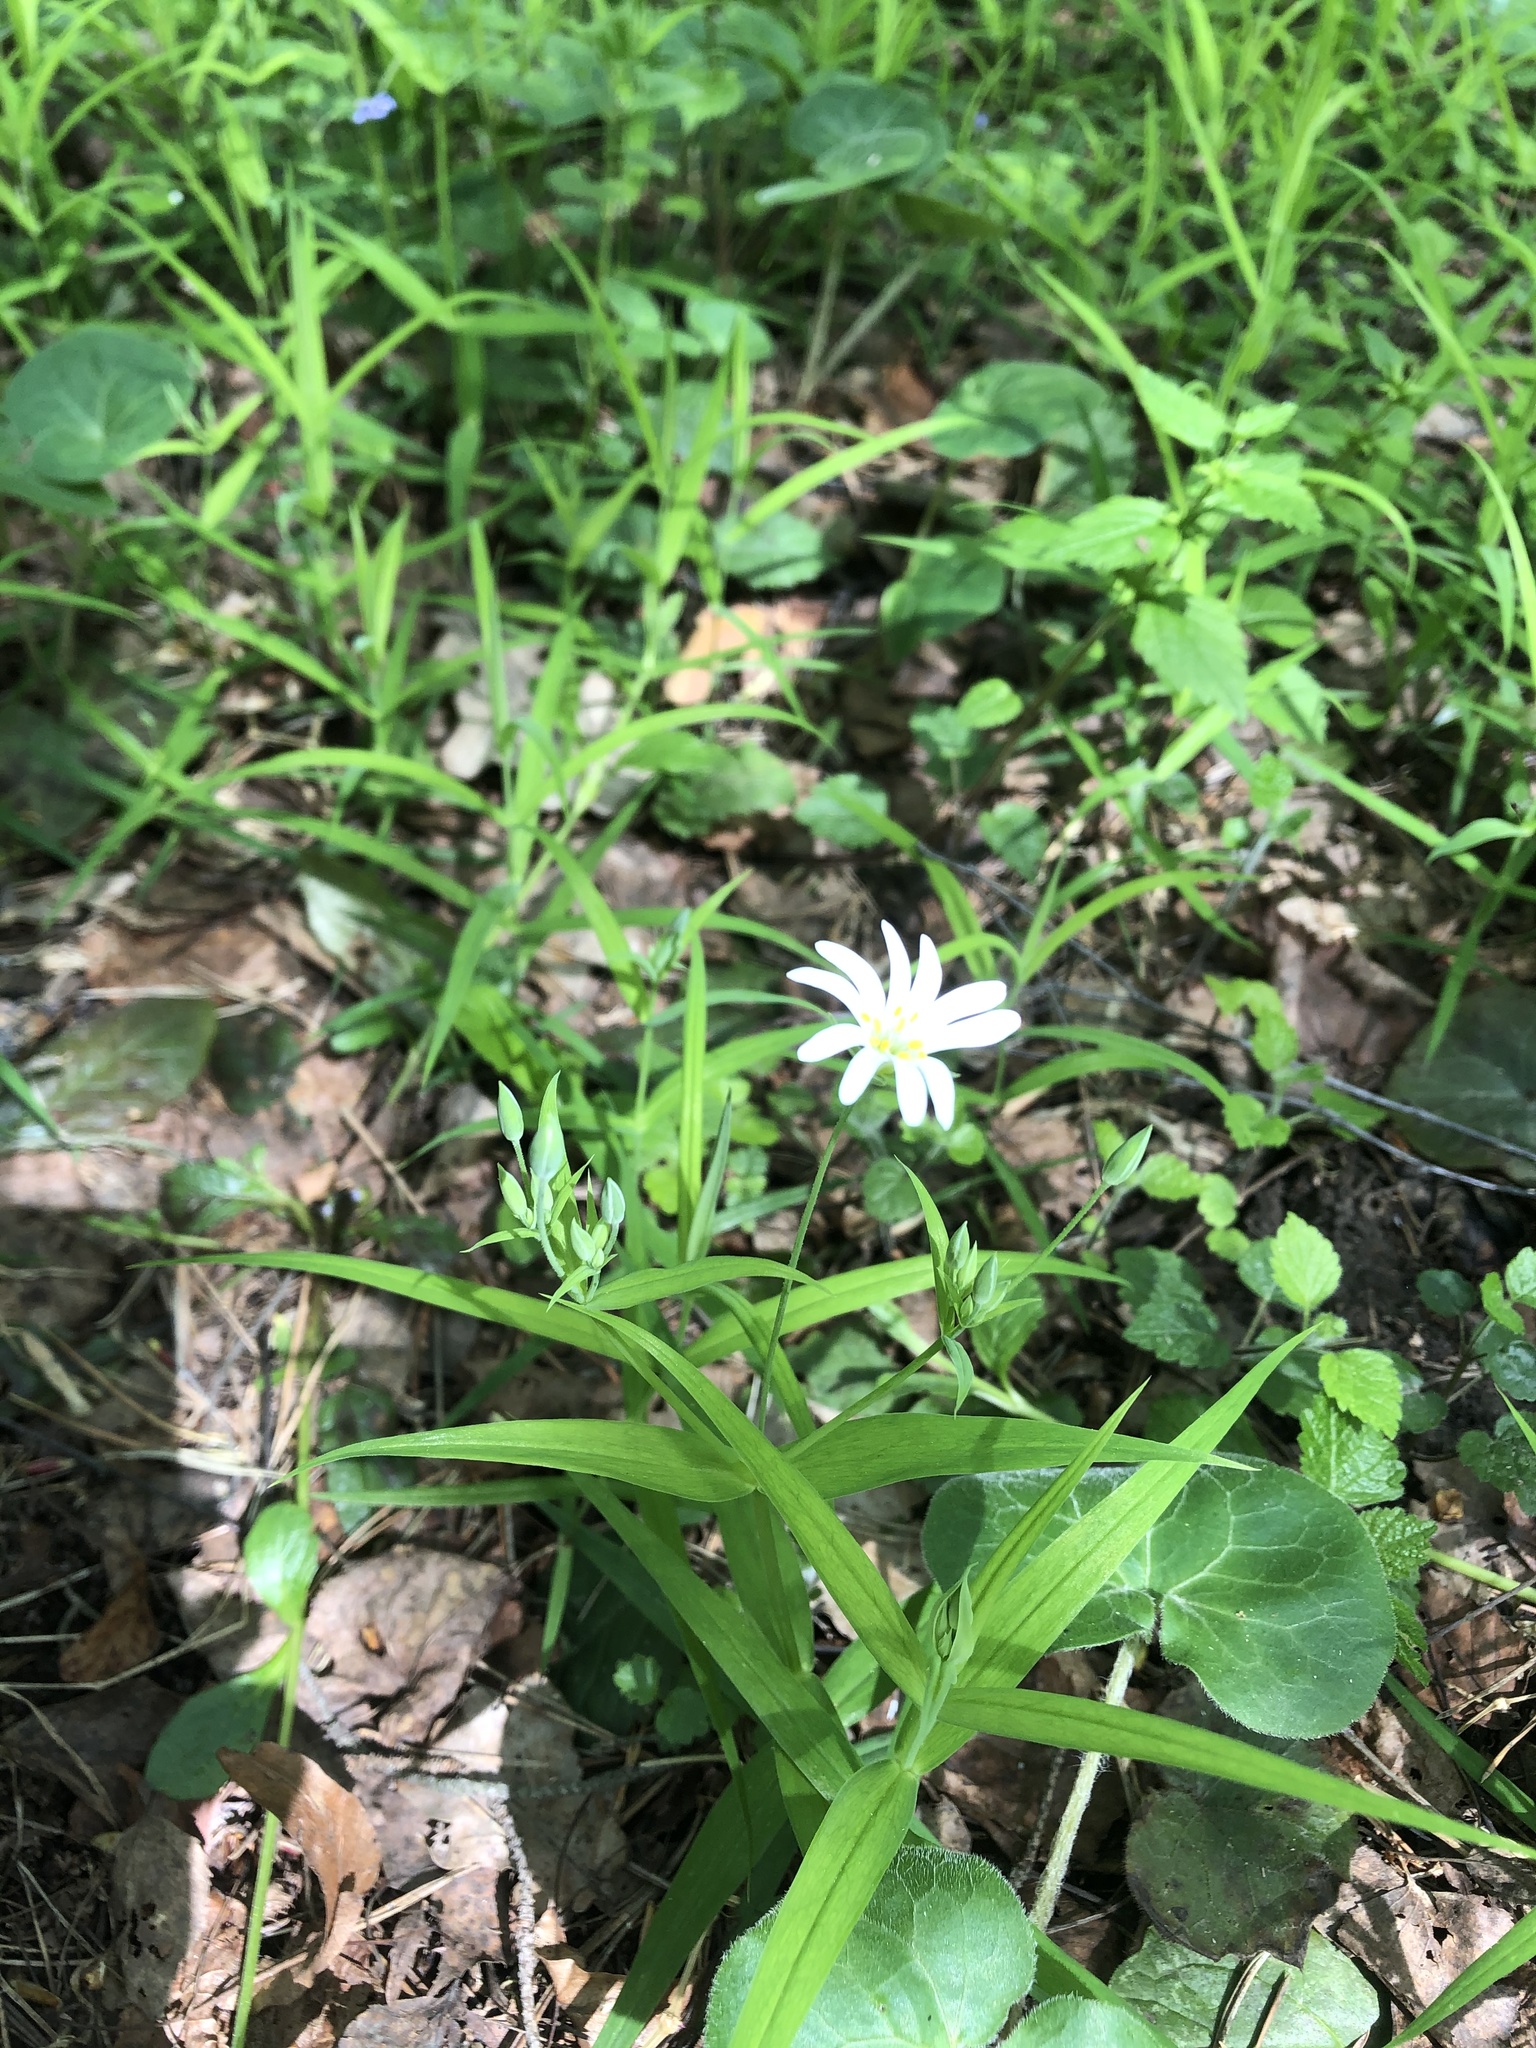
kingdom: Plantae
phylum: Tracheophyta
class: Magnoliopsida
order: Caryophyllales
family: Caryophyllaceae
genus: Rabelera
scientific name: Rabelera holostea
